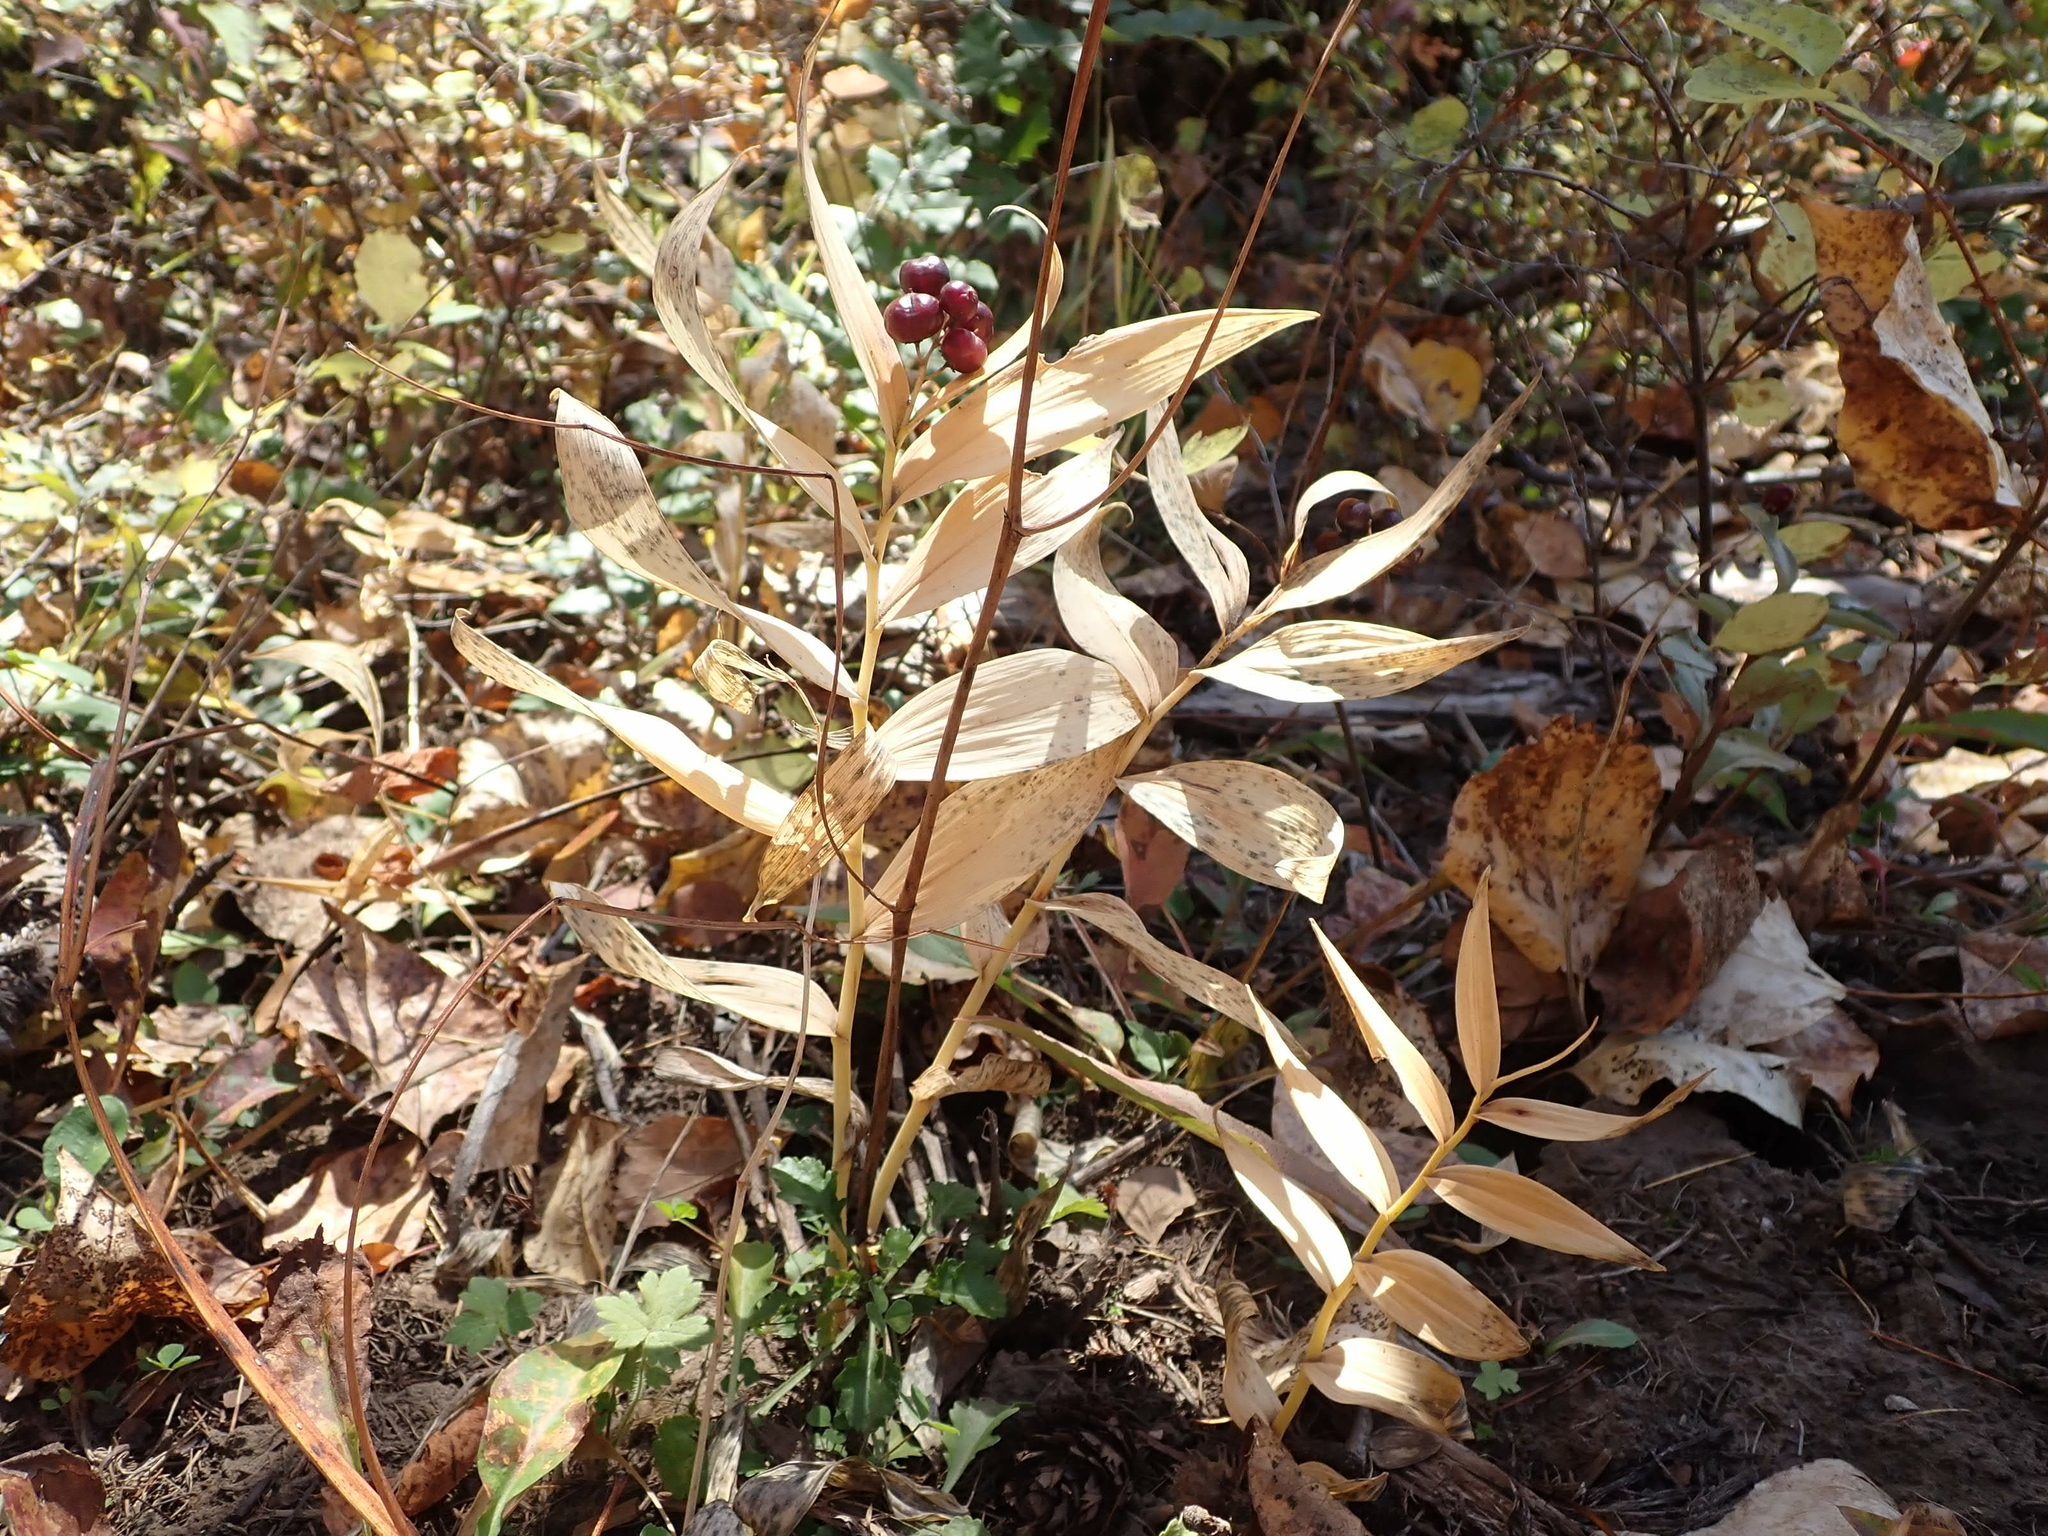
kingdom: Plantae
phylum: Tracheophyta
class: Liliopsida
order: Asparagales
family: Asparagaceae
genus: Maianthemum
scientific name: Maianthemum stellatum
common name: Little false solomon's seal
